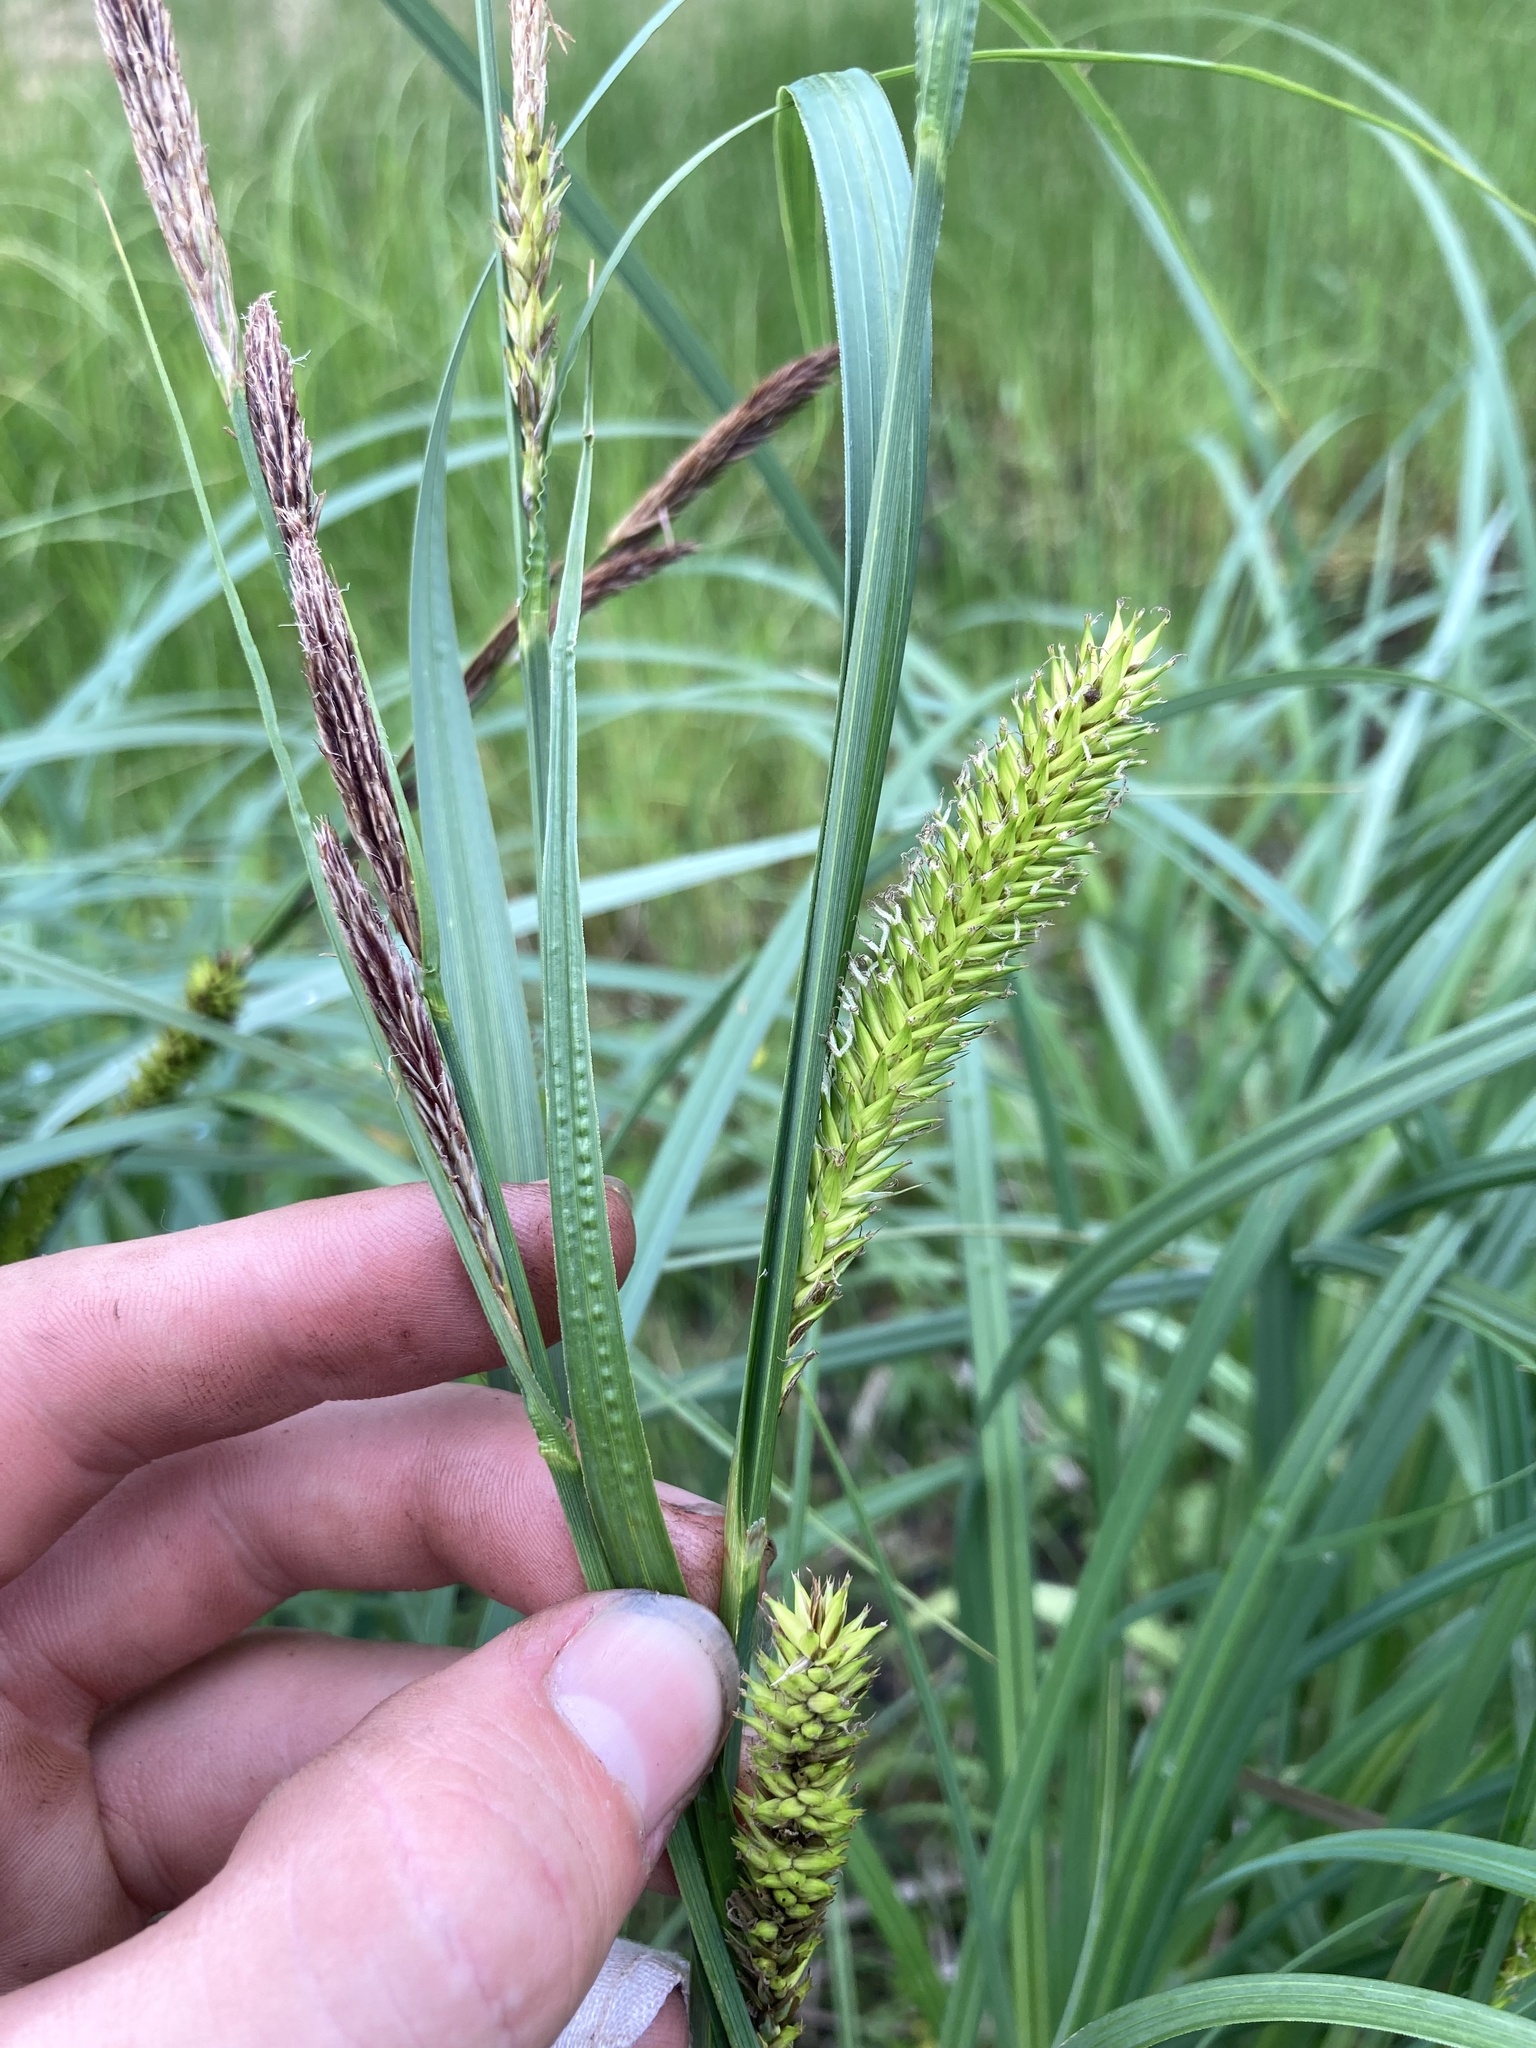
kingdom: Plantae
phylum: Tracheophyta
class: Liliopsida
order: Poales
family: Cyperaceae
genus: Carex
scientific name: Carex lacustris
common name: Common lake sedge
